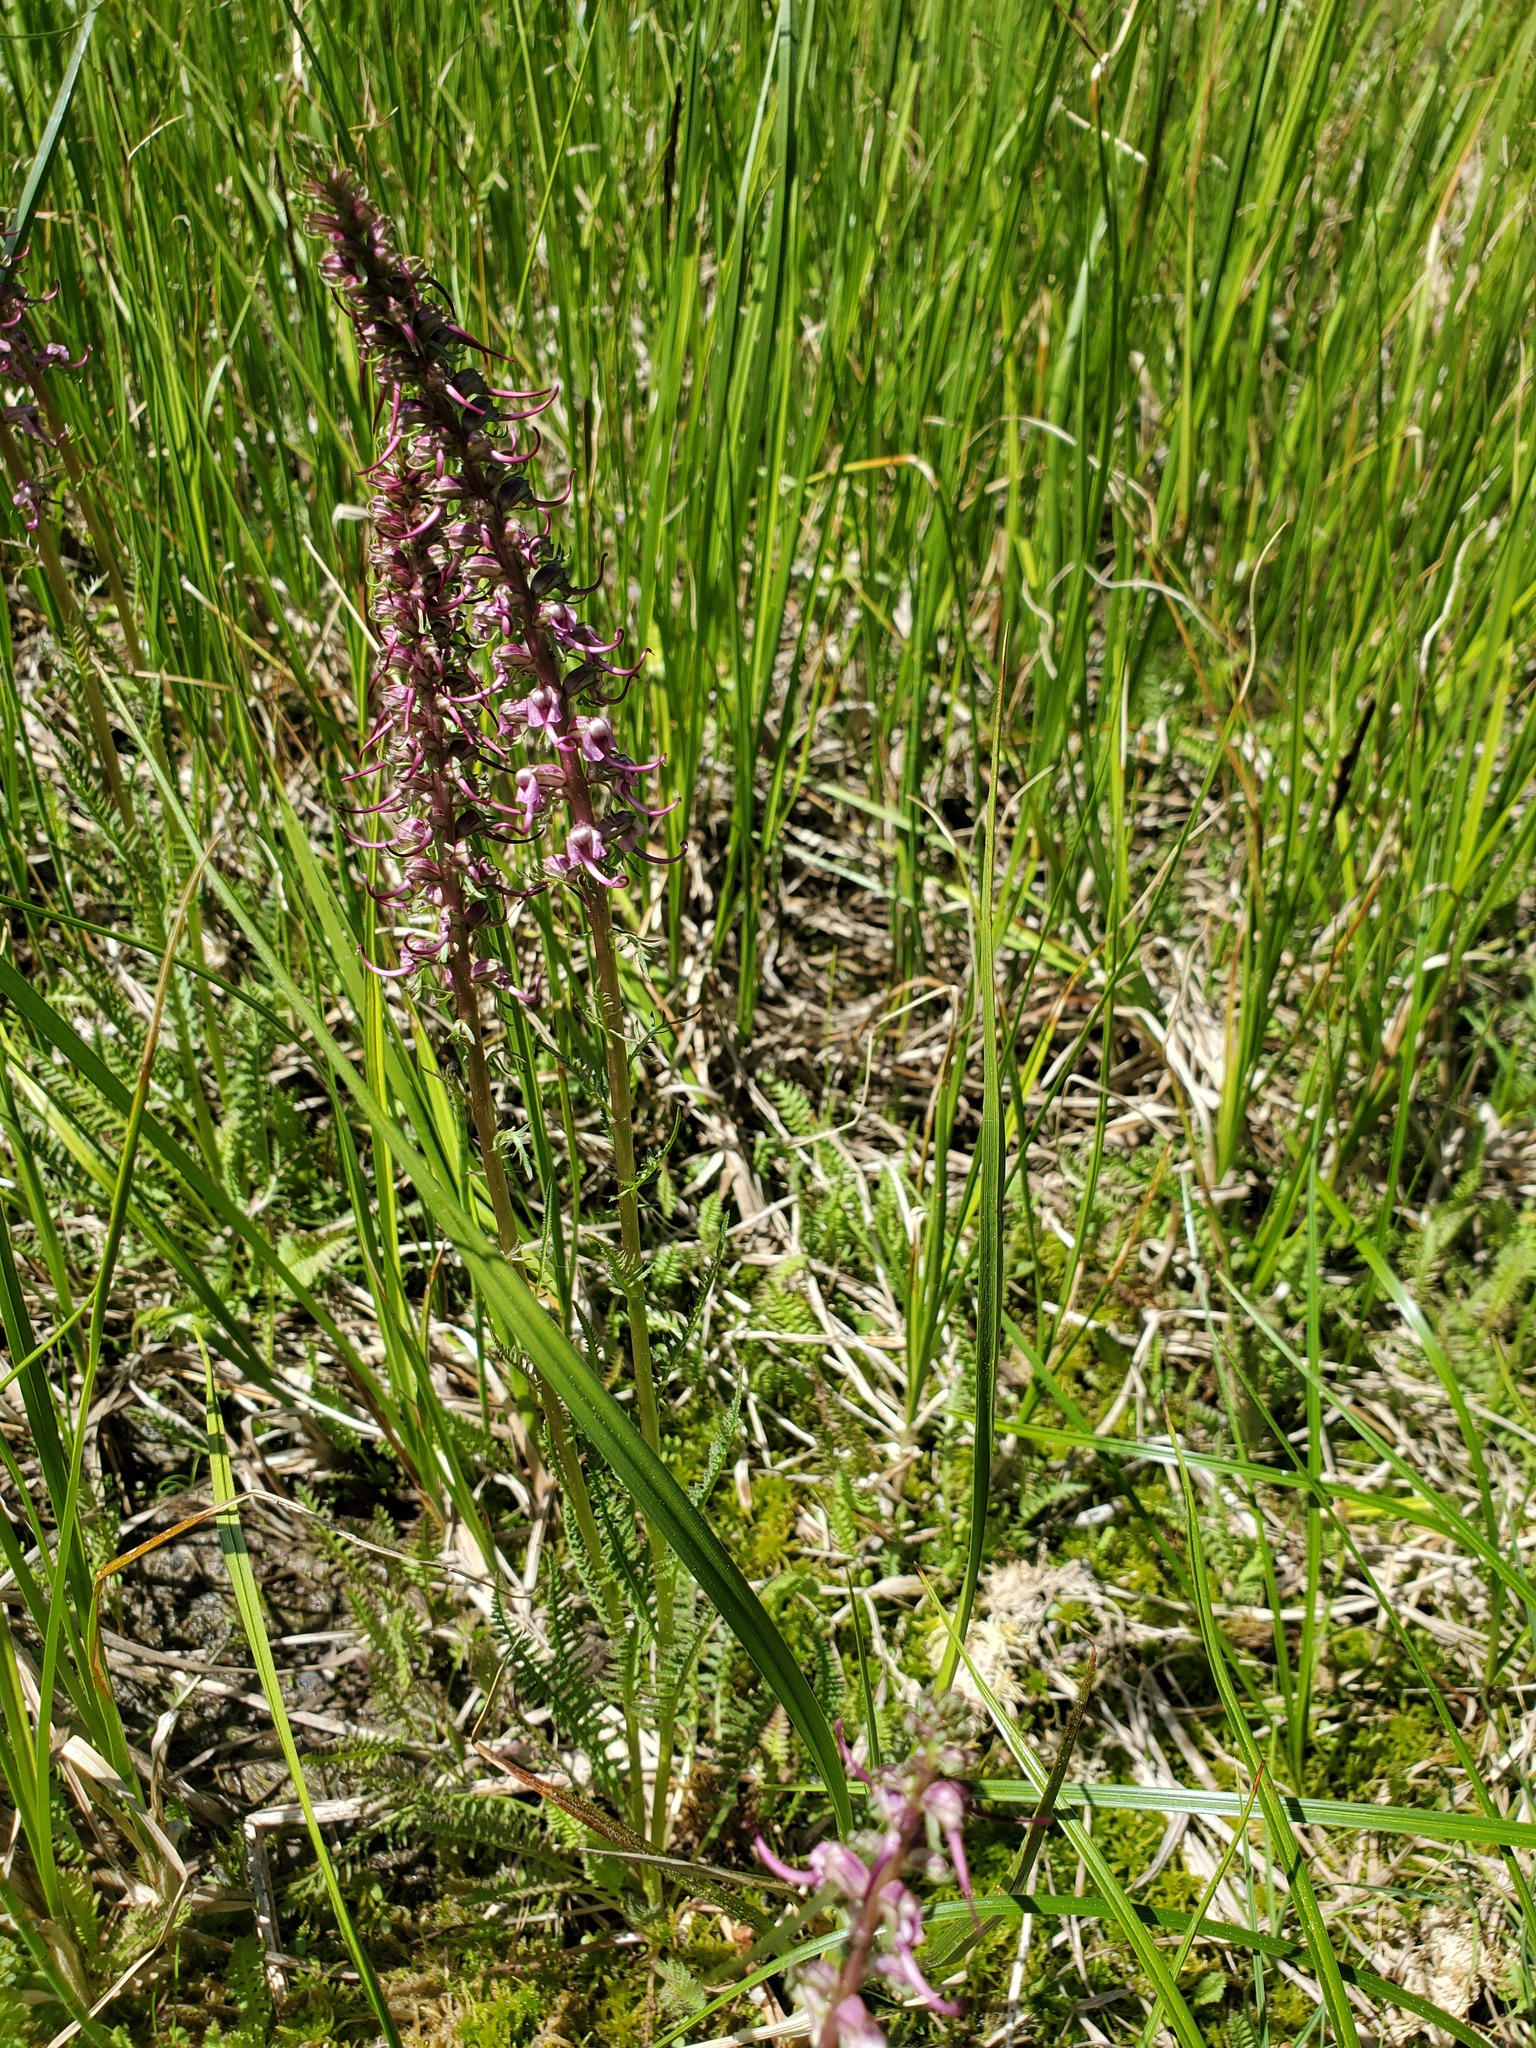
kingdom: Plantae
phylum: Tracheophyta
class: Magnoliopsida
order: Lamiales
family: Orobanchaceae
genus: Pedicularis
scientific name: Pedicularis groenlandica
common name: Elephant's-head
